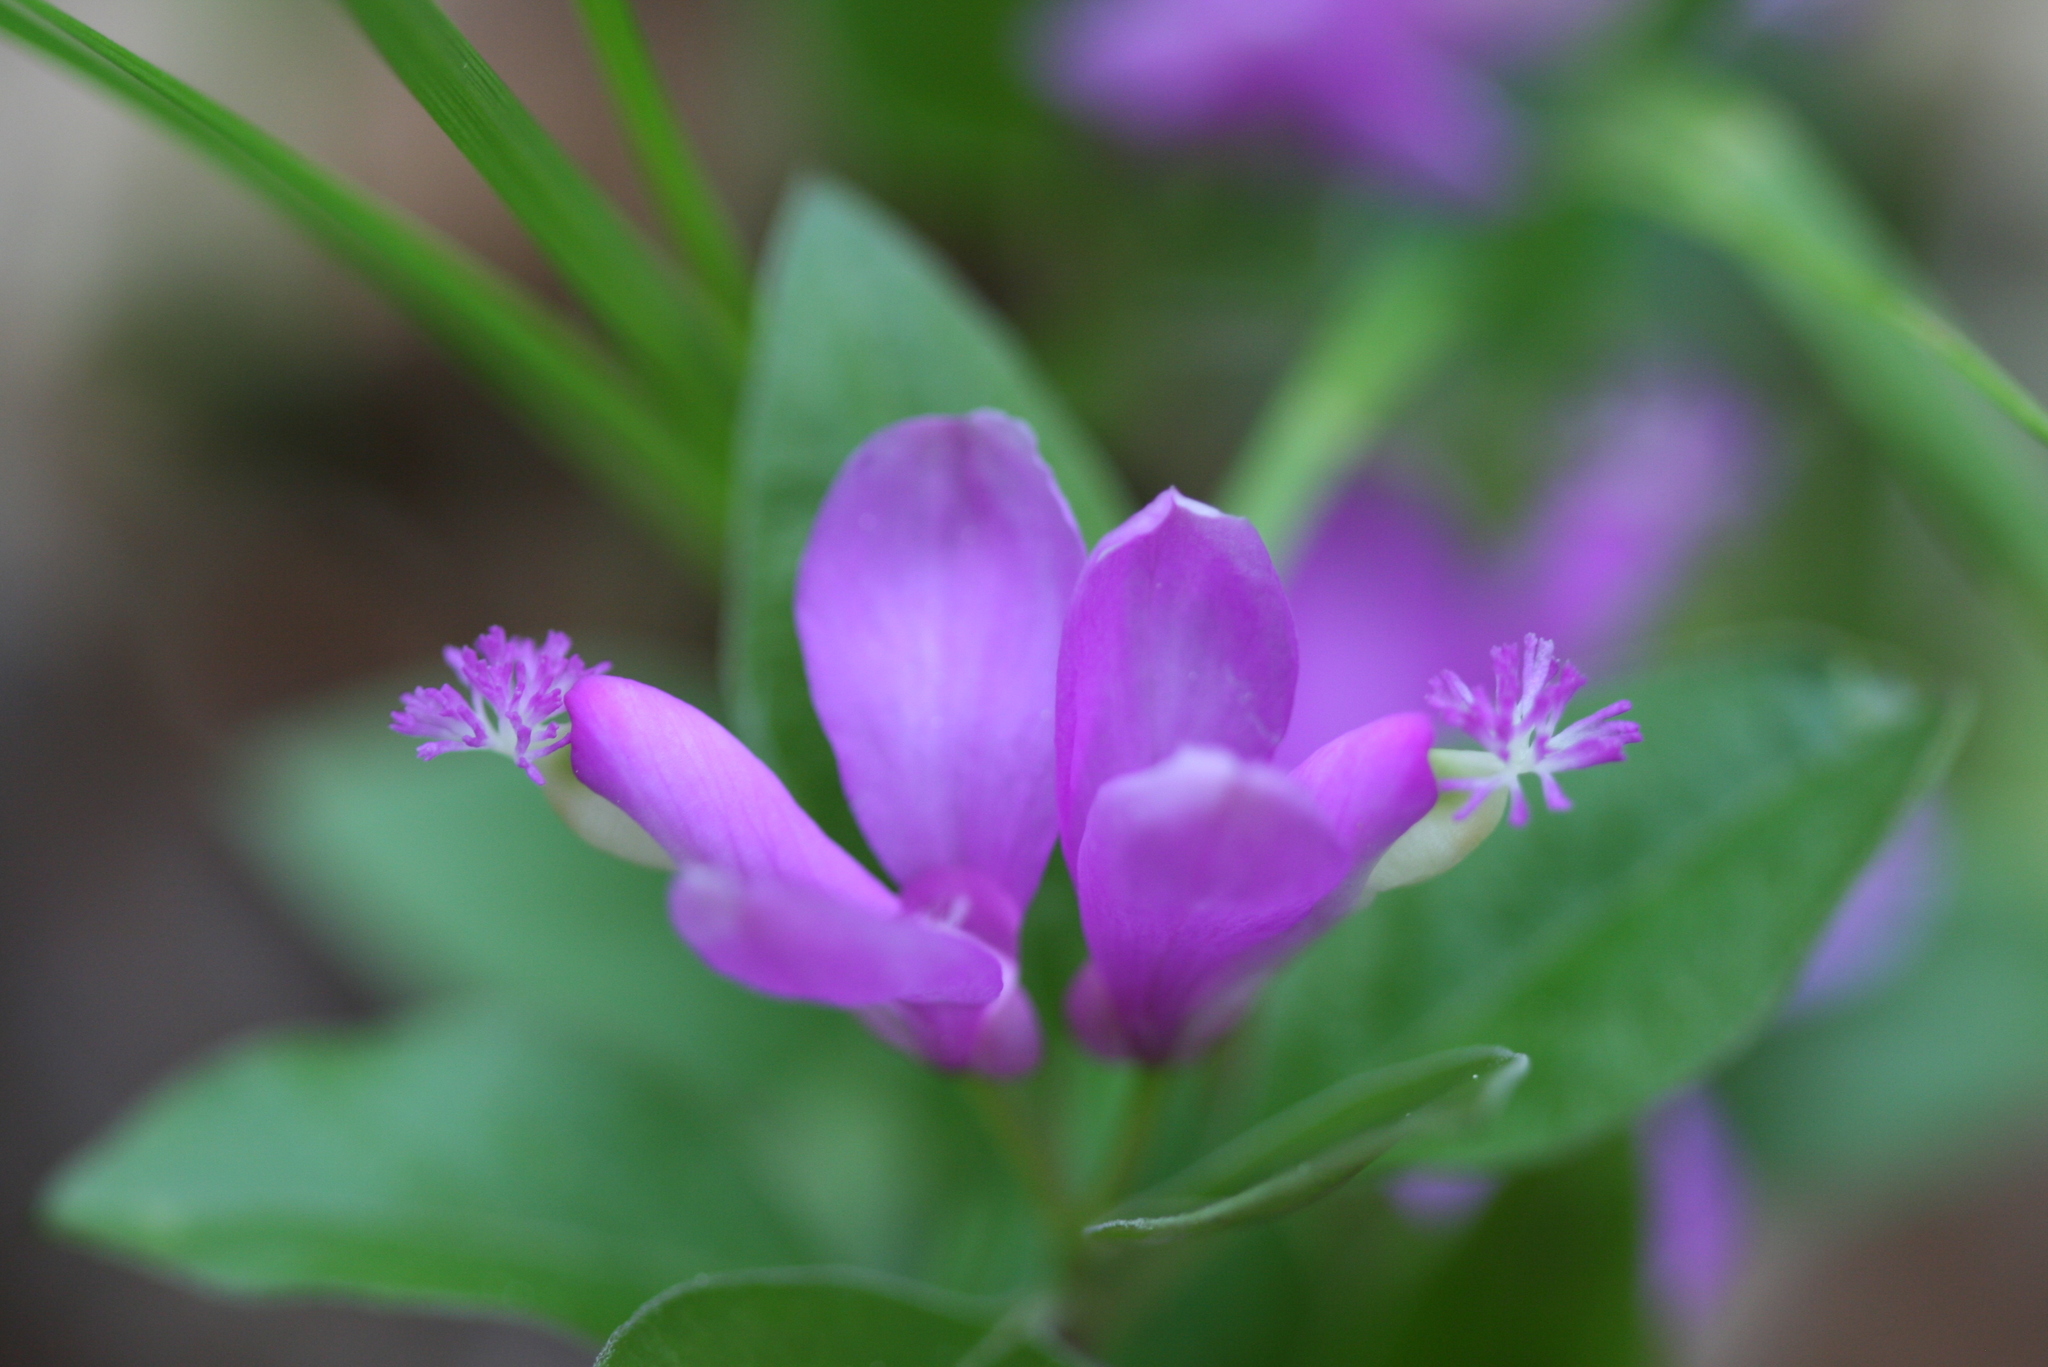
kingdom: Plantae
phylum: Tracheophyta
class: Magnoliopsida
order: Fabales
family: Polygalaceae
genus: Polygaloides
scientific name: Polygaloides paucifolia
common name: Bird-on-the-wing
